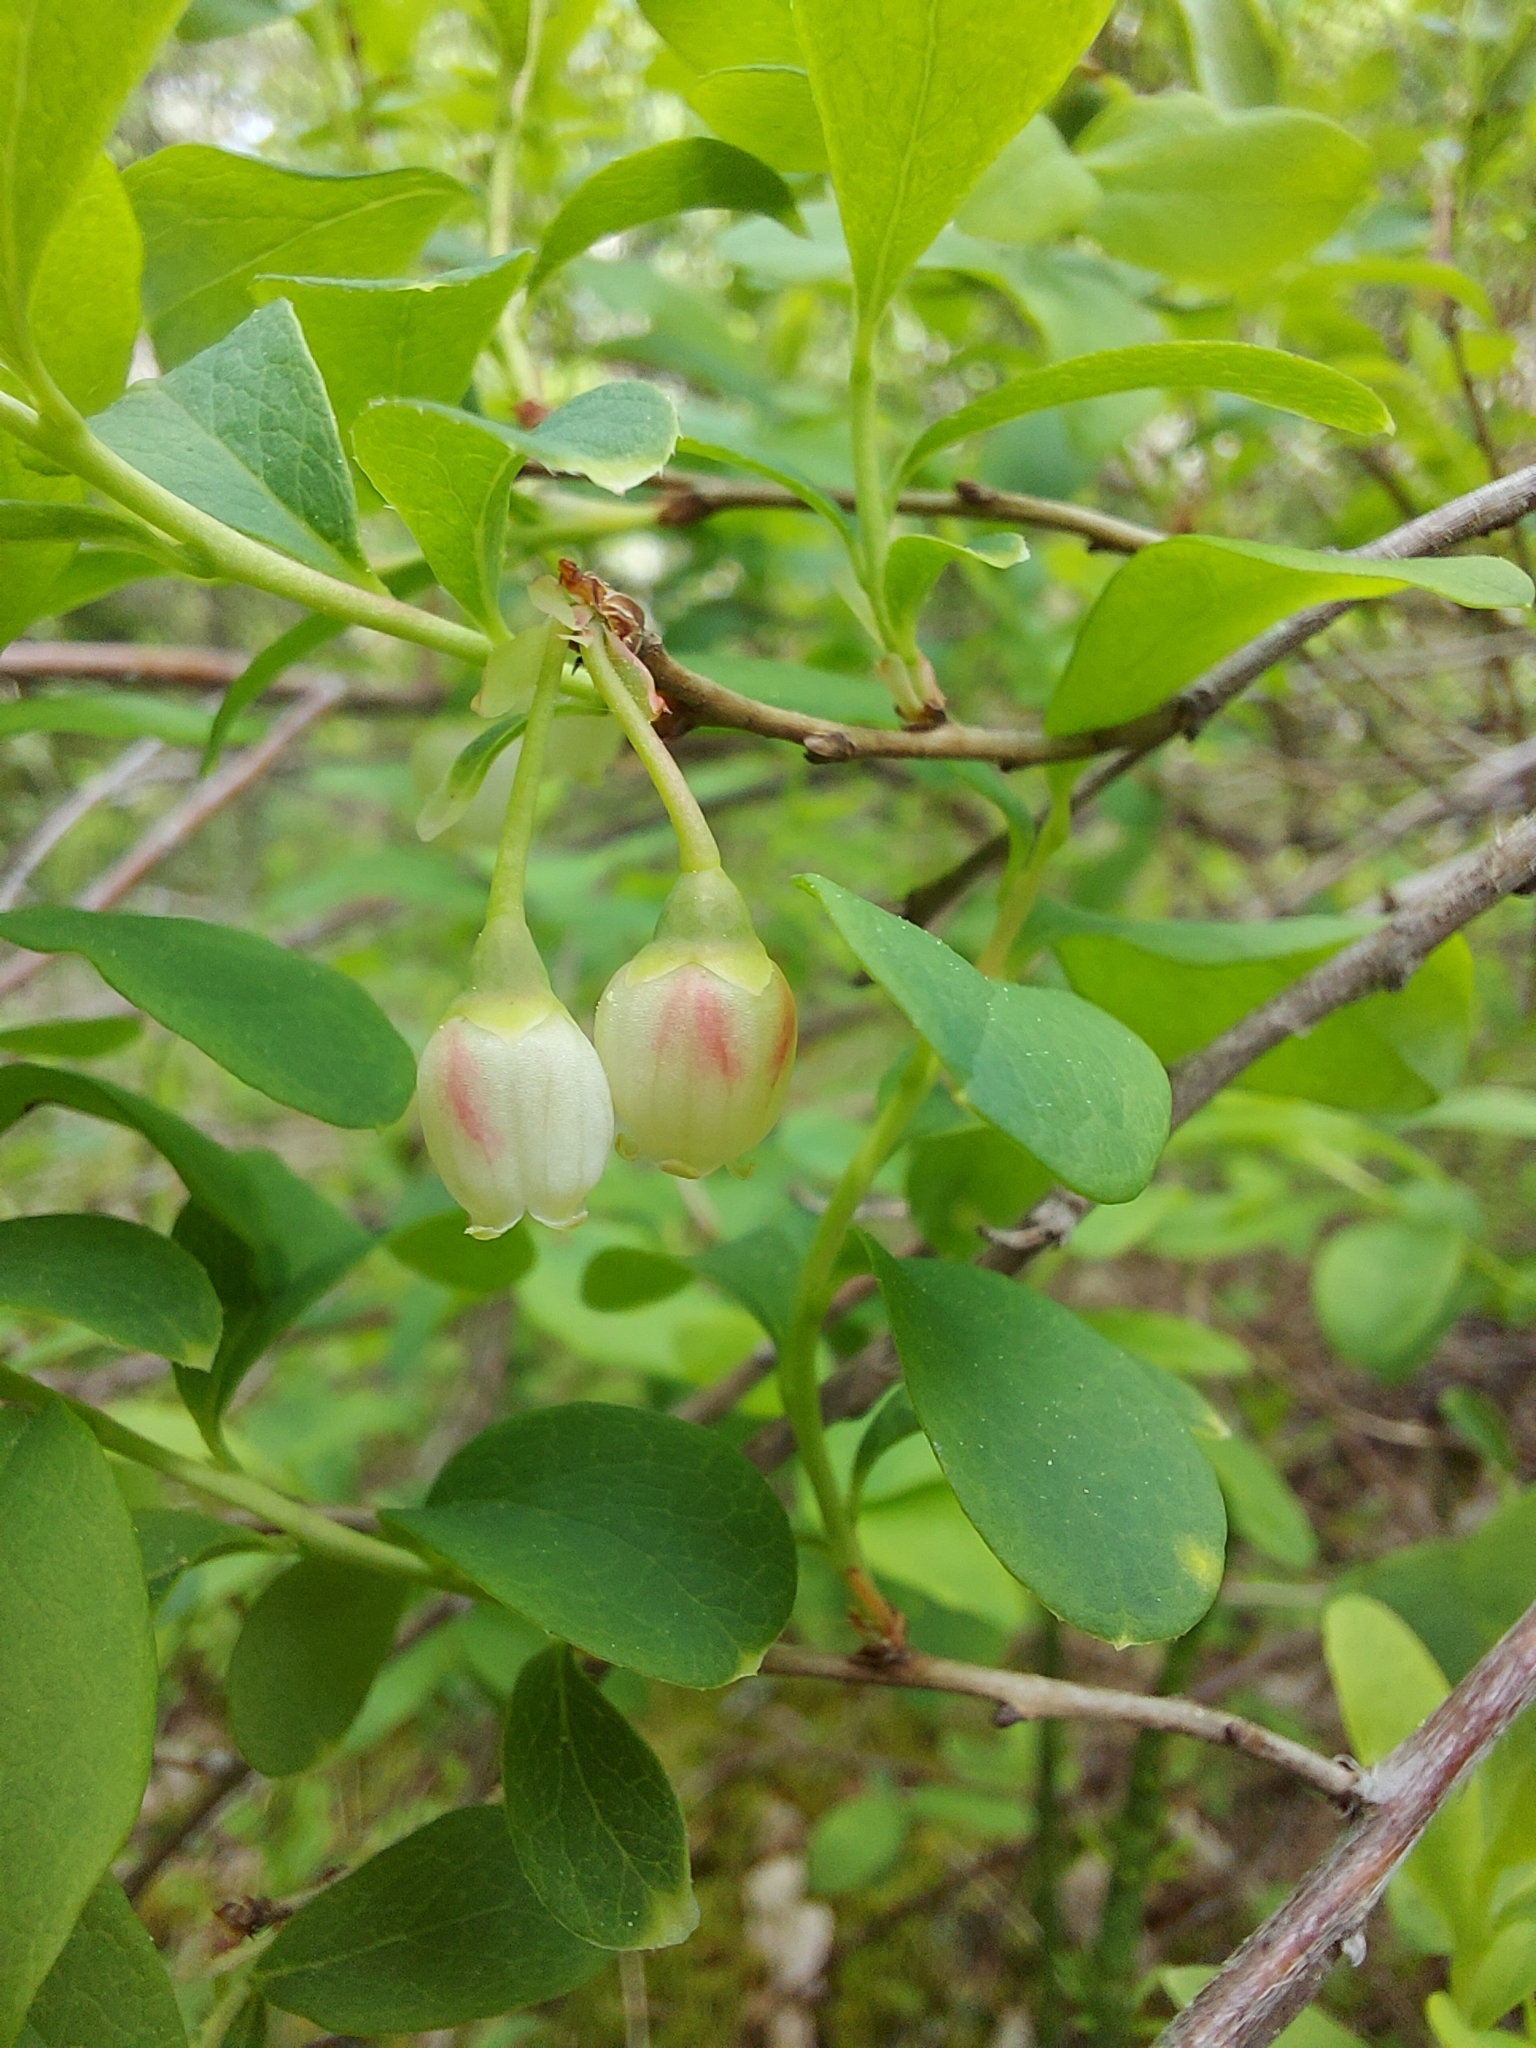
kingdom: Plantae
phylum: Tracheophyta
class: Magnoliopsida
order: Ericales
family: Ericaceae
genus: Vaccinium
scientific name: Vaccinium uliginosum
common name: Bog bilberry
